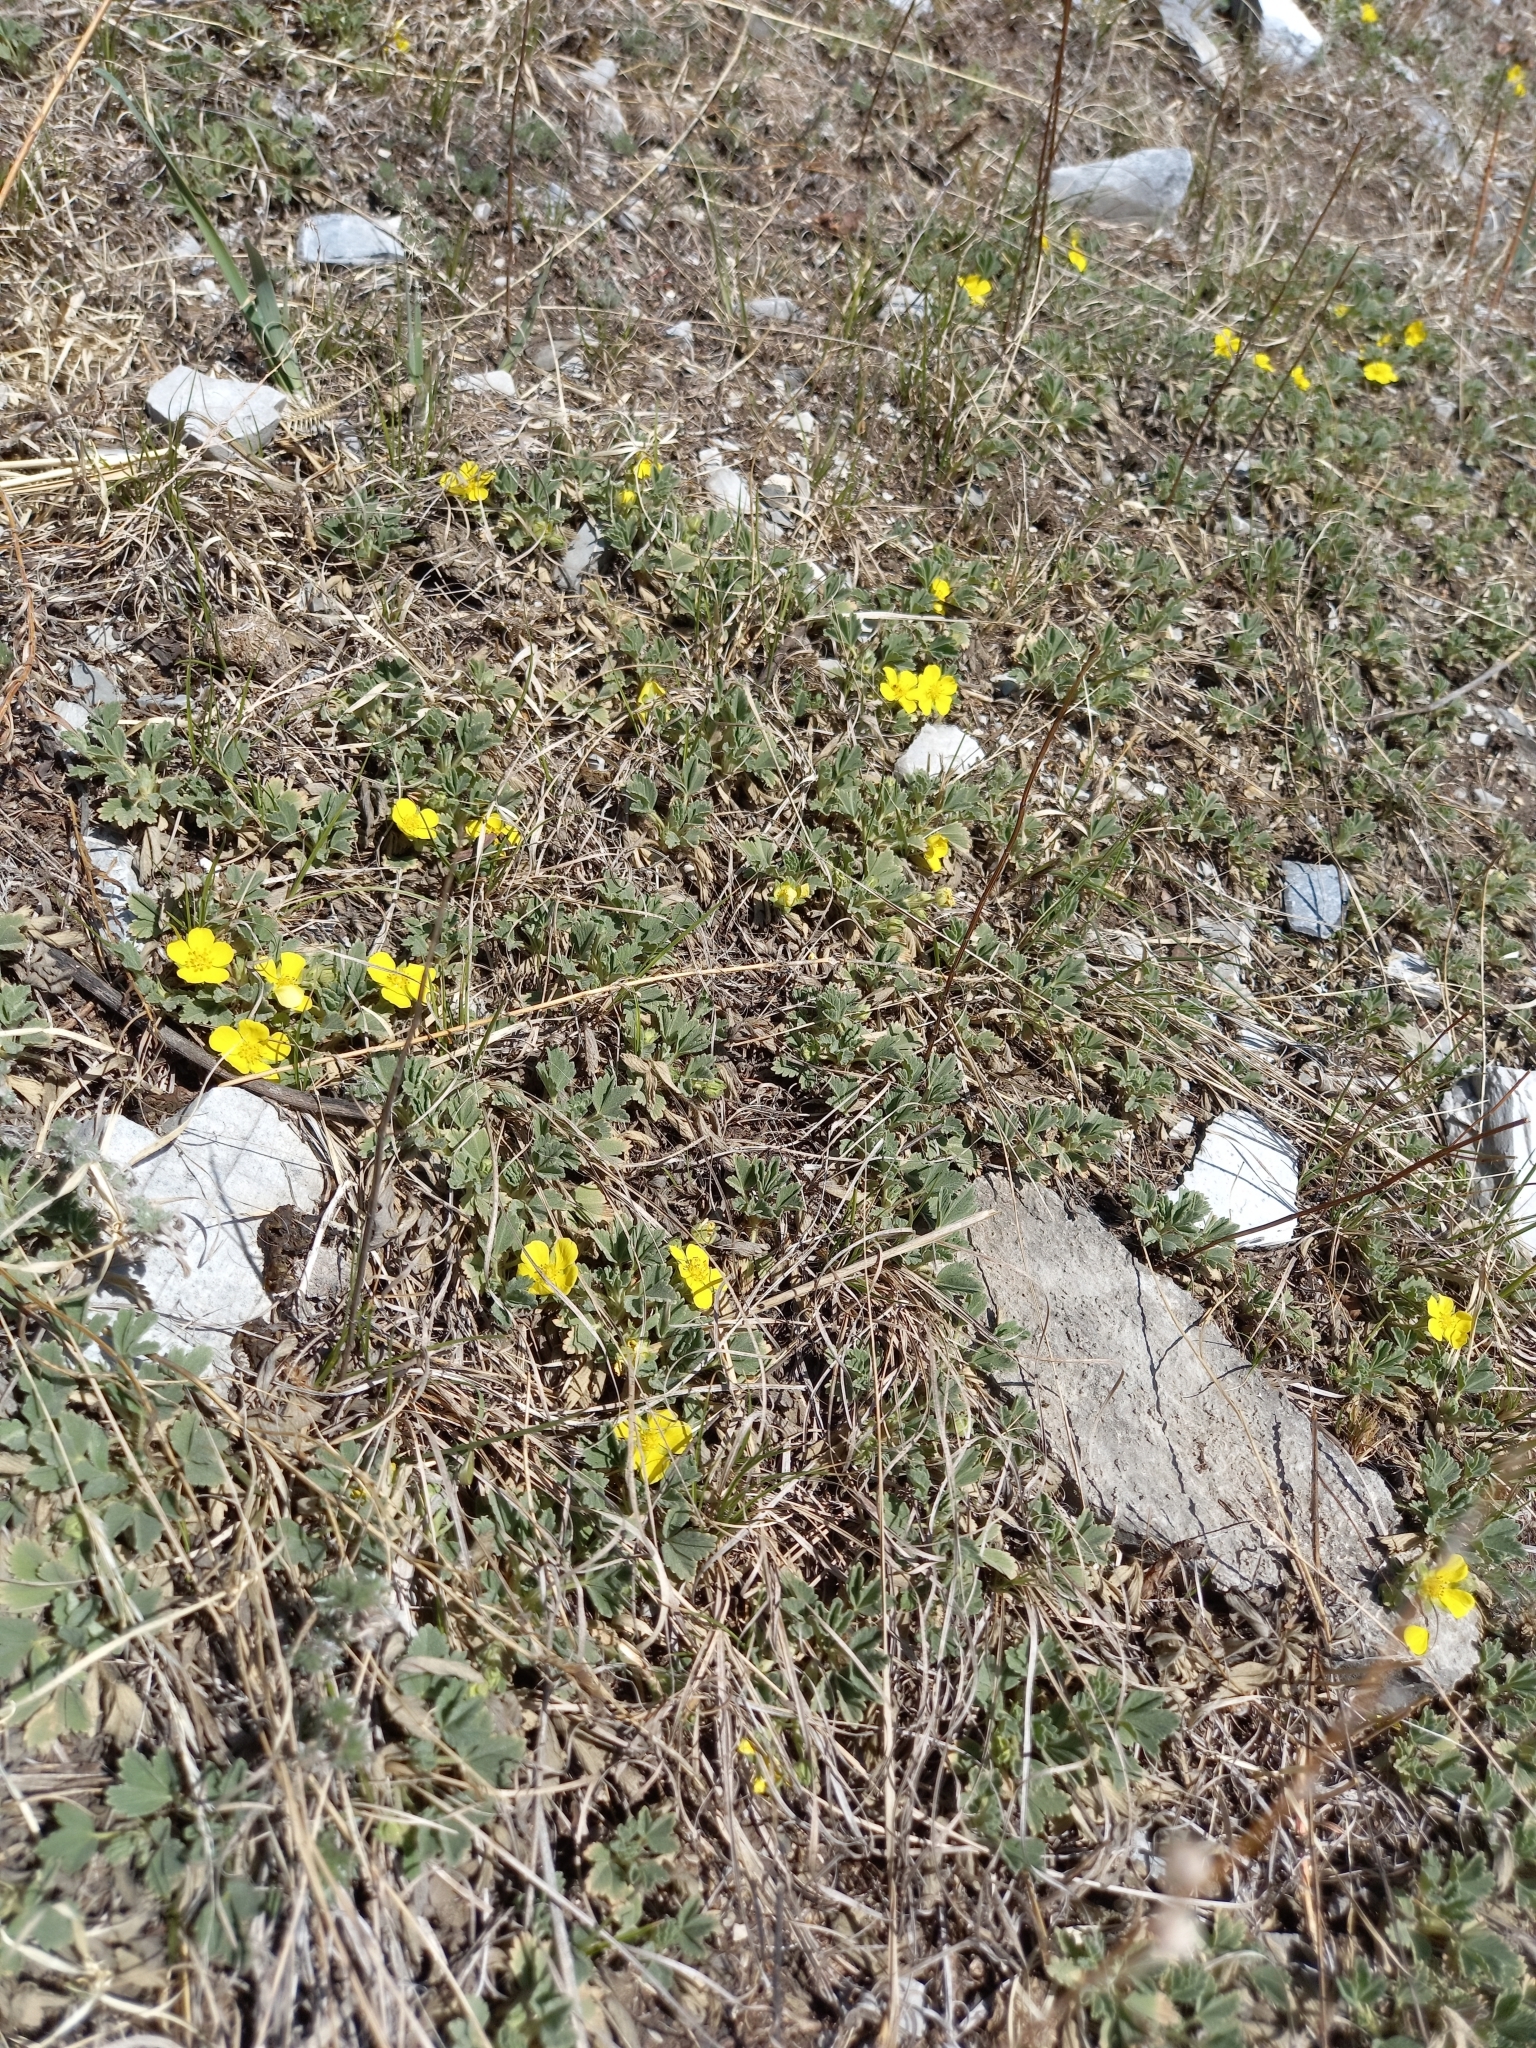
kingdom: Plantae
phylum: Tracheophyta
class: Magnoliopsida
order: Rosales
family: Rosaceae
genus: Potentilla
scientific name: Potentilla acaulis
